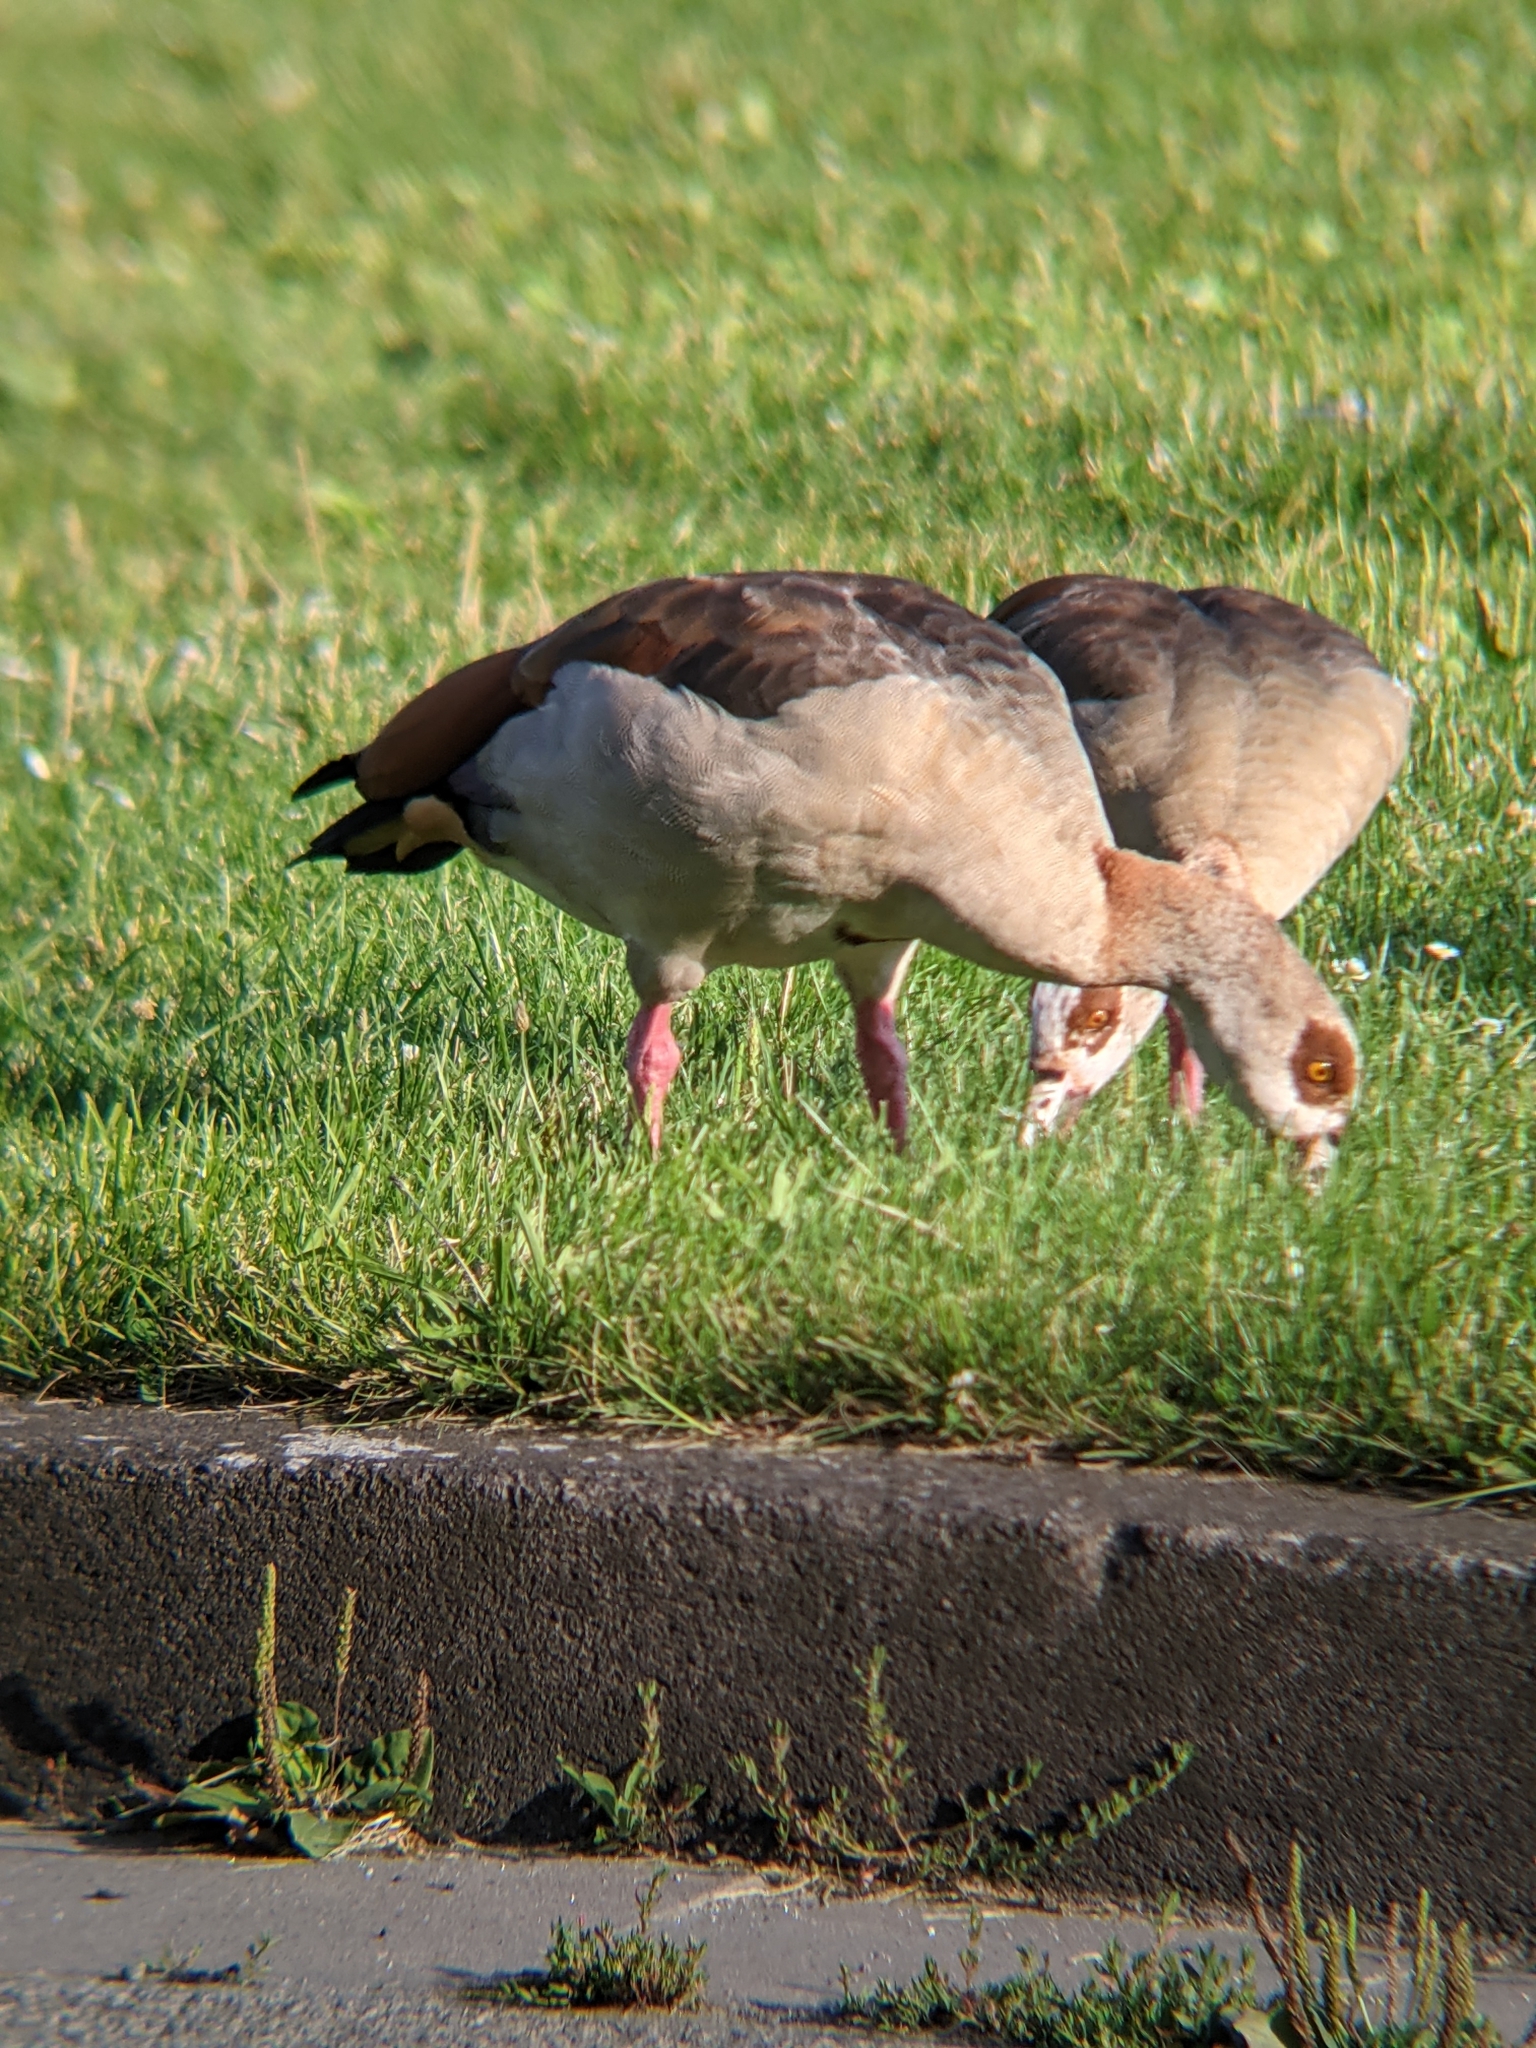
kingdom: Animalia
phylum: Chordata
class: Aves
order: Anseriformes
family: Anatidae
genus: Alopochen
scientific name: Alopochen aegyptiaca
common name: Egyptian goose
